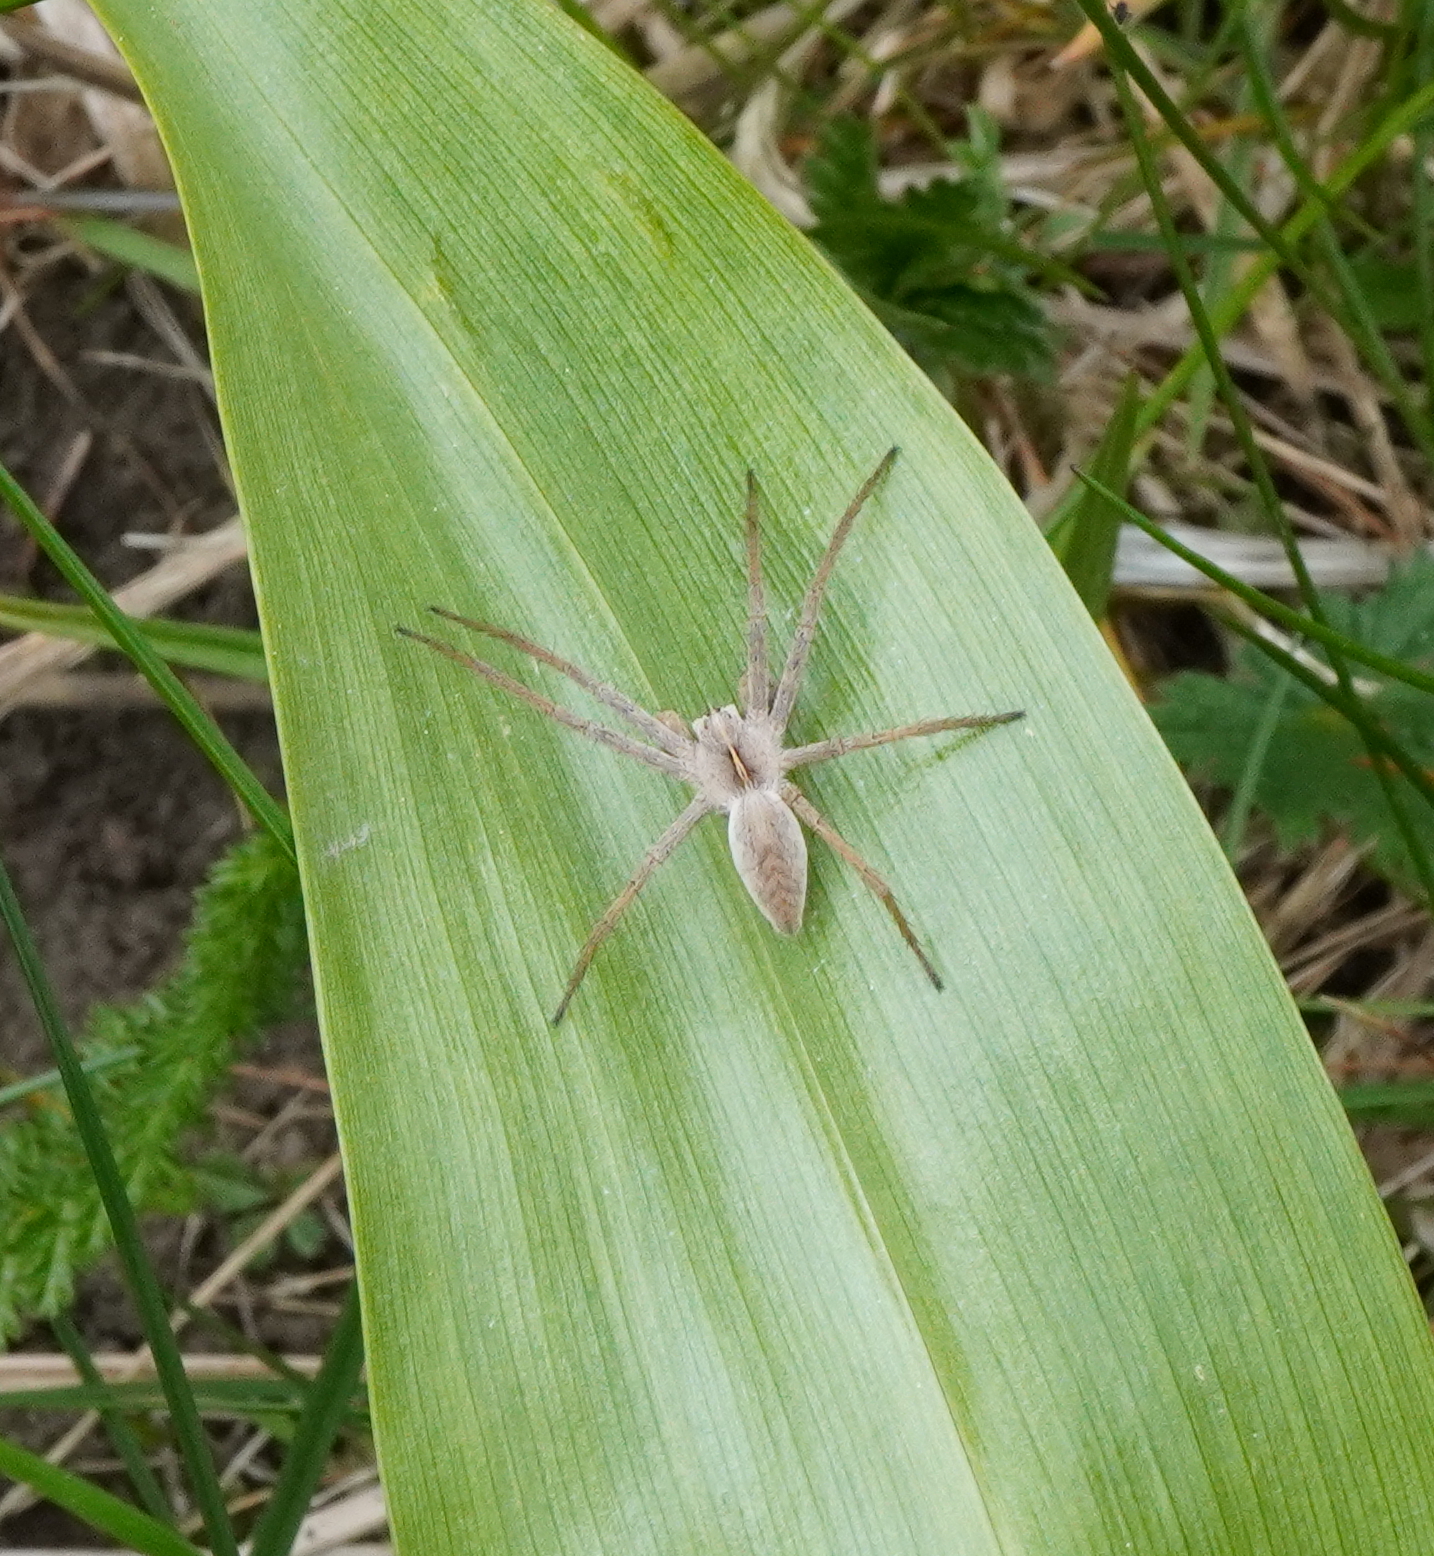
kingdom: Animalia
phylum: Arthropoda
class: Arachnida
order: Araneae
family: Pisauridae
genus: Pisaura
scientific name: Pisaura mirabilis
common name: Tent spider
